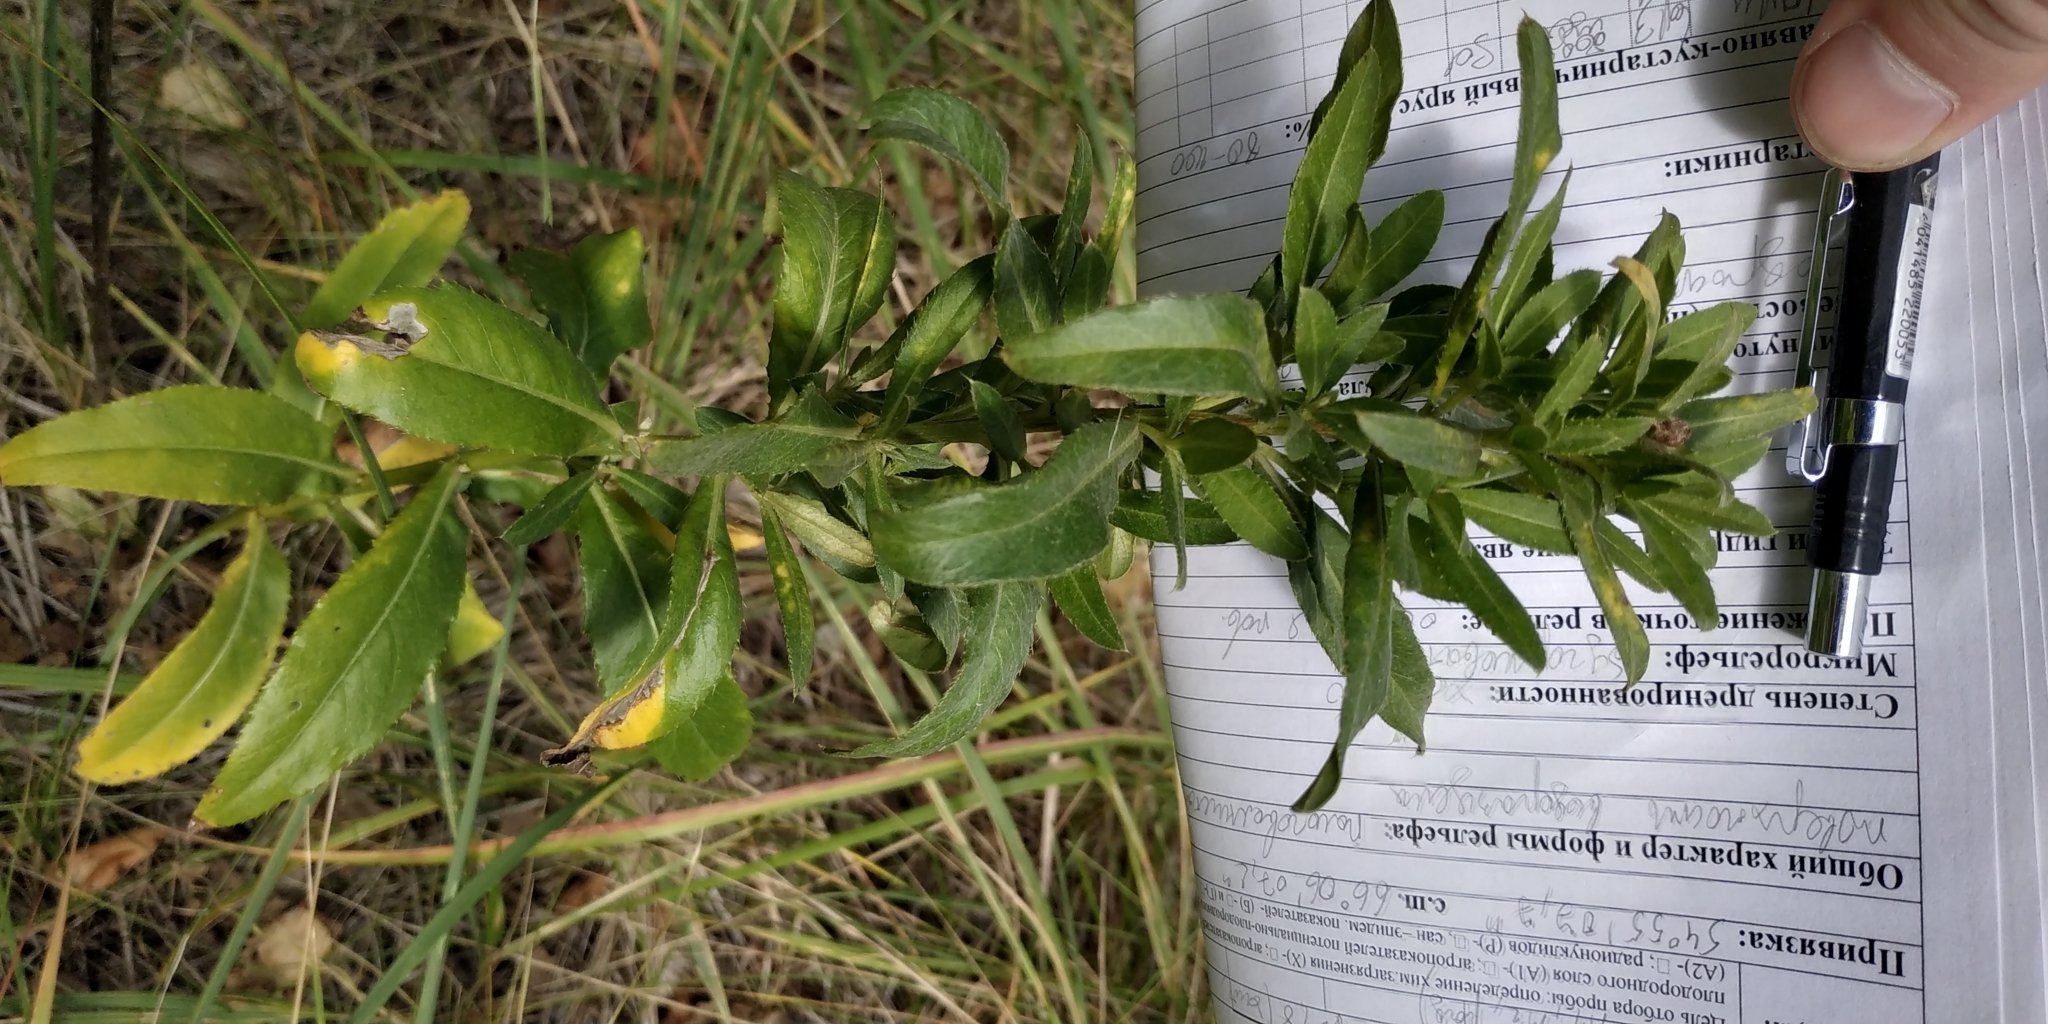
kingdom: Plantae
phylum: Tracheophyta
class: Magnoliopsida
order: Asterales
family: Asteraceae
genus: Cirsium
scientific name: Cirsium arvense
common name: Creeping thistle
